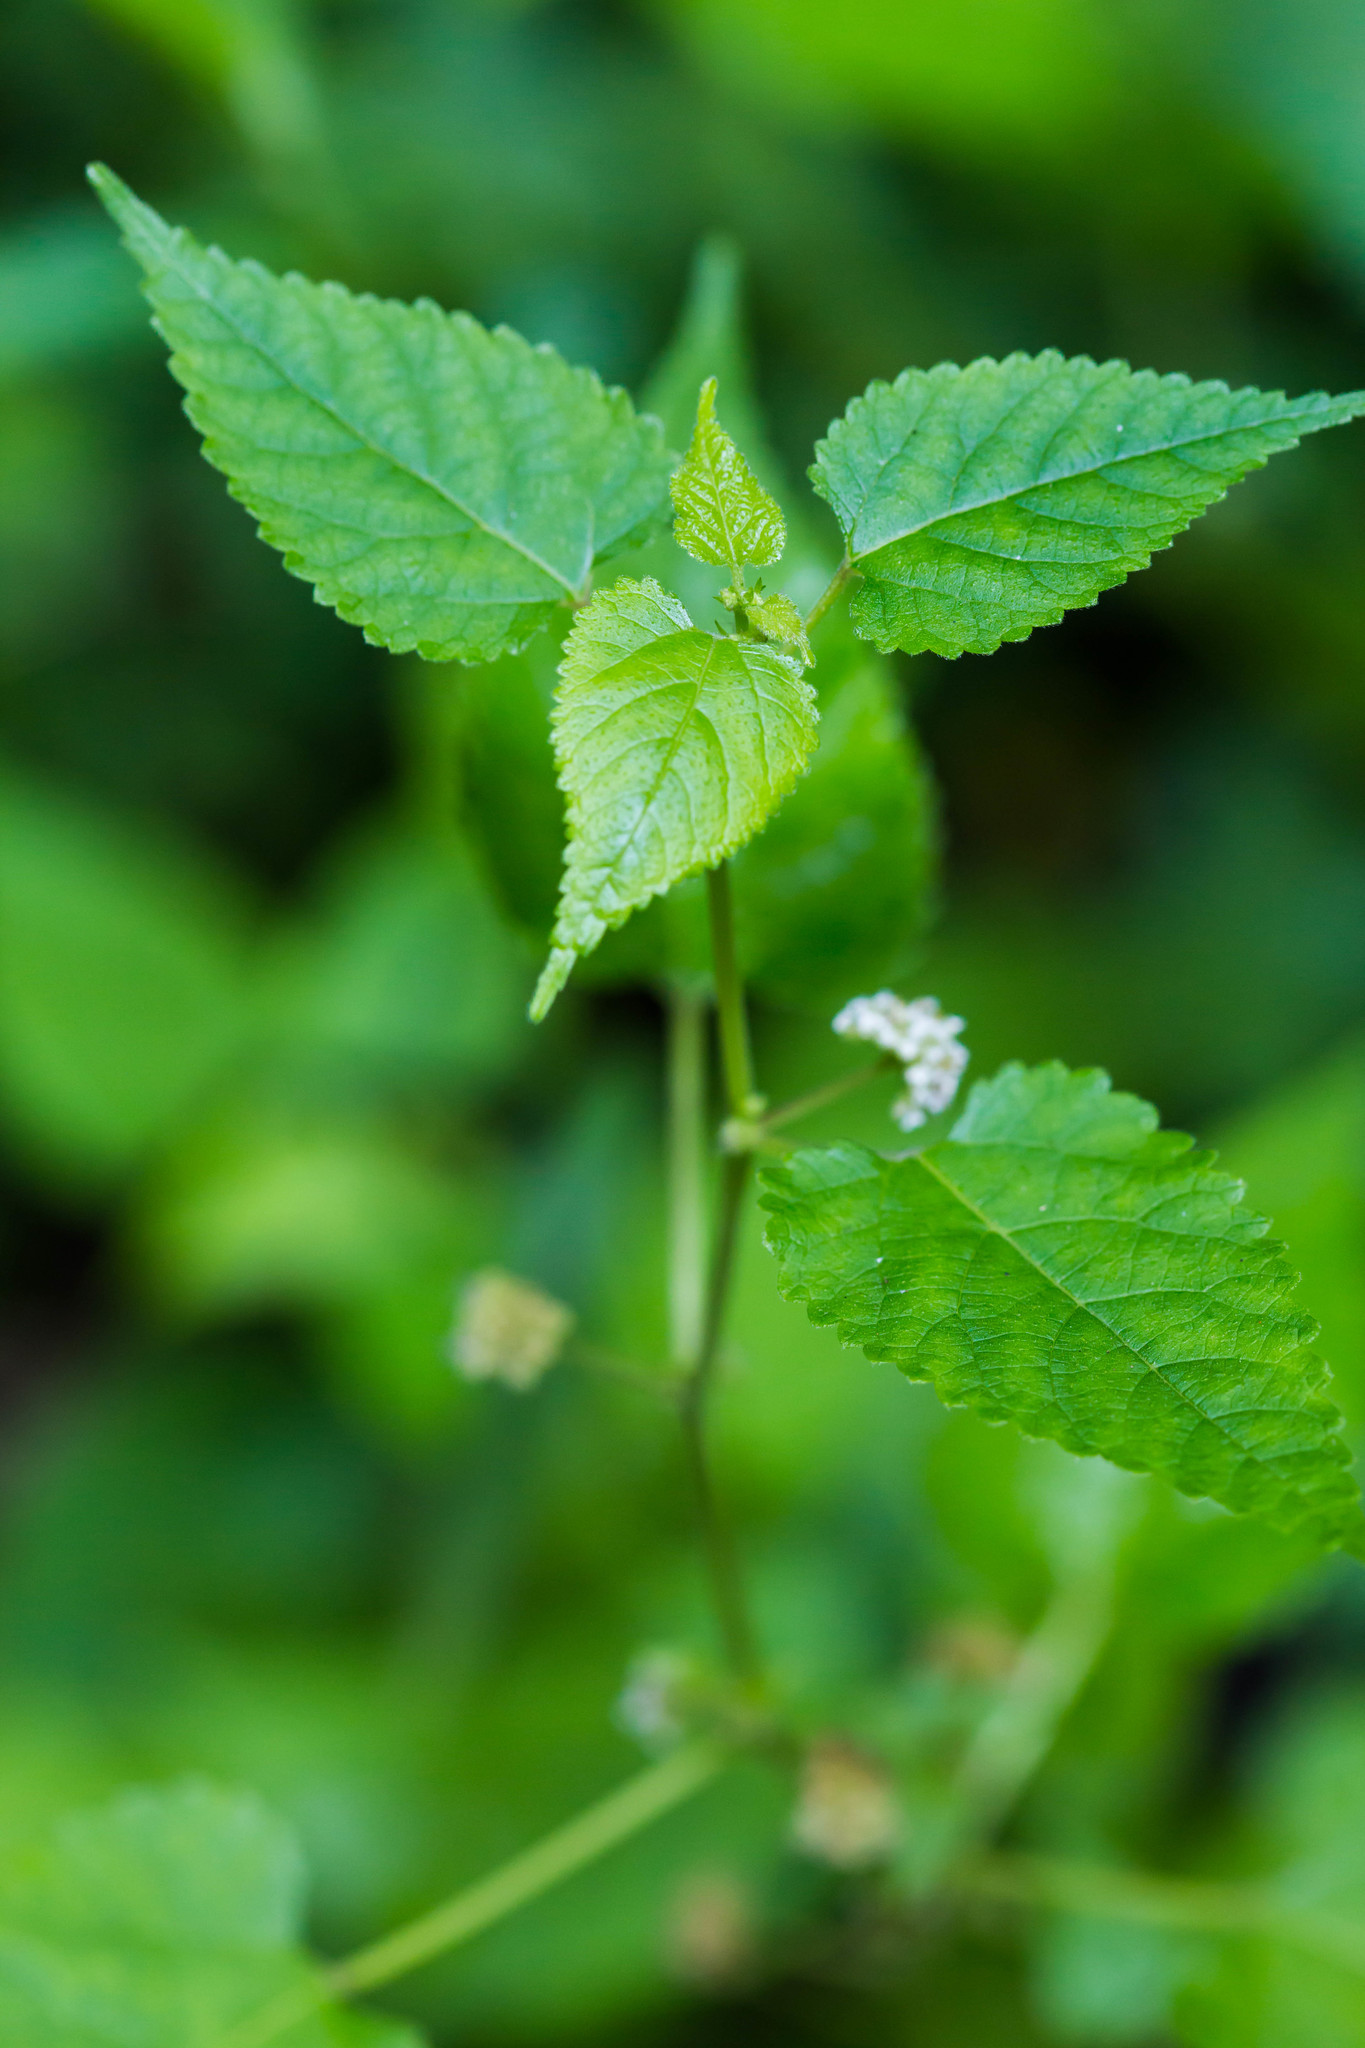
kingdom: Plantae
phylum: Tracheophyta
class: Magnoliopsida
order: Rosales
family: Moraceae
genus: Fatoua
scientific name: Fatoua villosa
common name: Hairy crabweed
